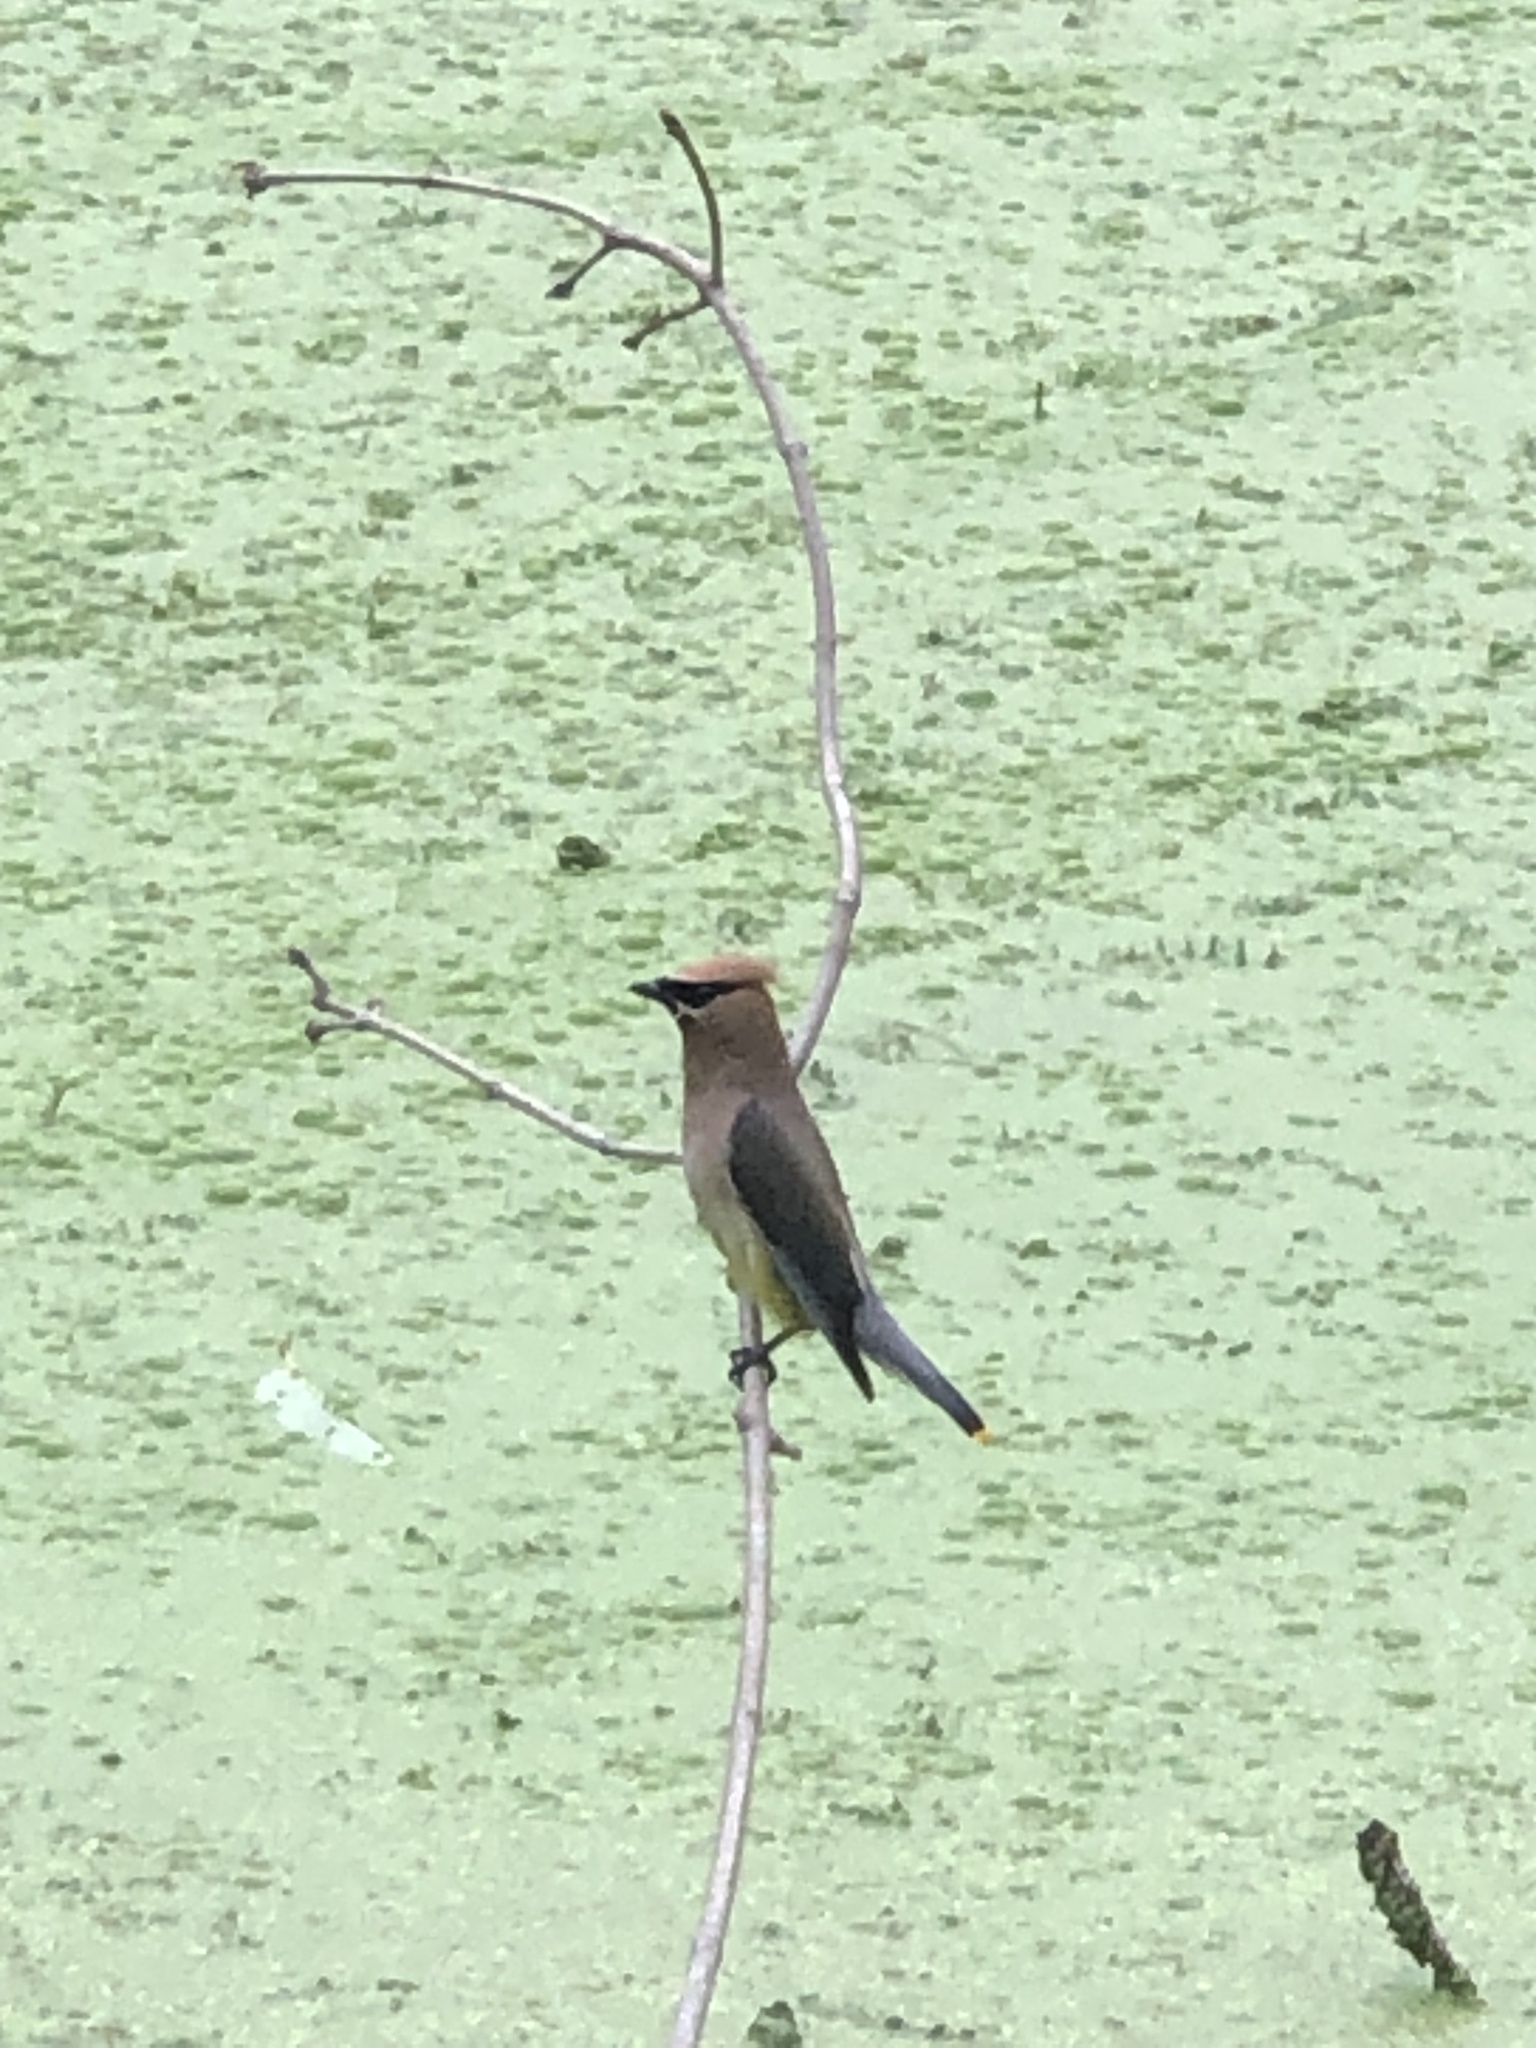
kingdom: Animalia
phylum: Chordata
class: Aves
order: Passeriformes
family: Bombycillidae
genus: Bombycilla
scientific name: Bombycilla cedrorum
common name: Cedar waxwing
